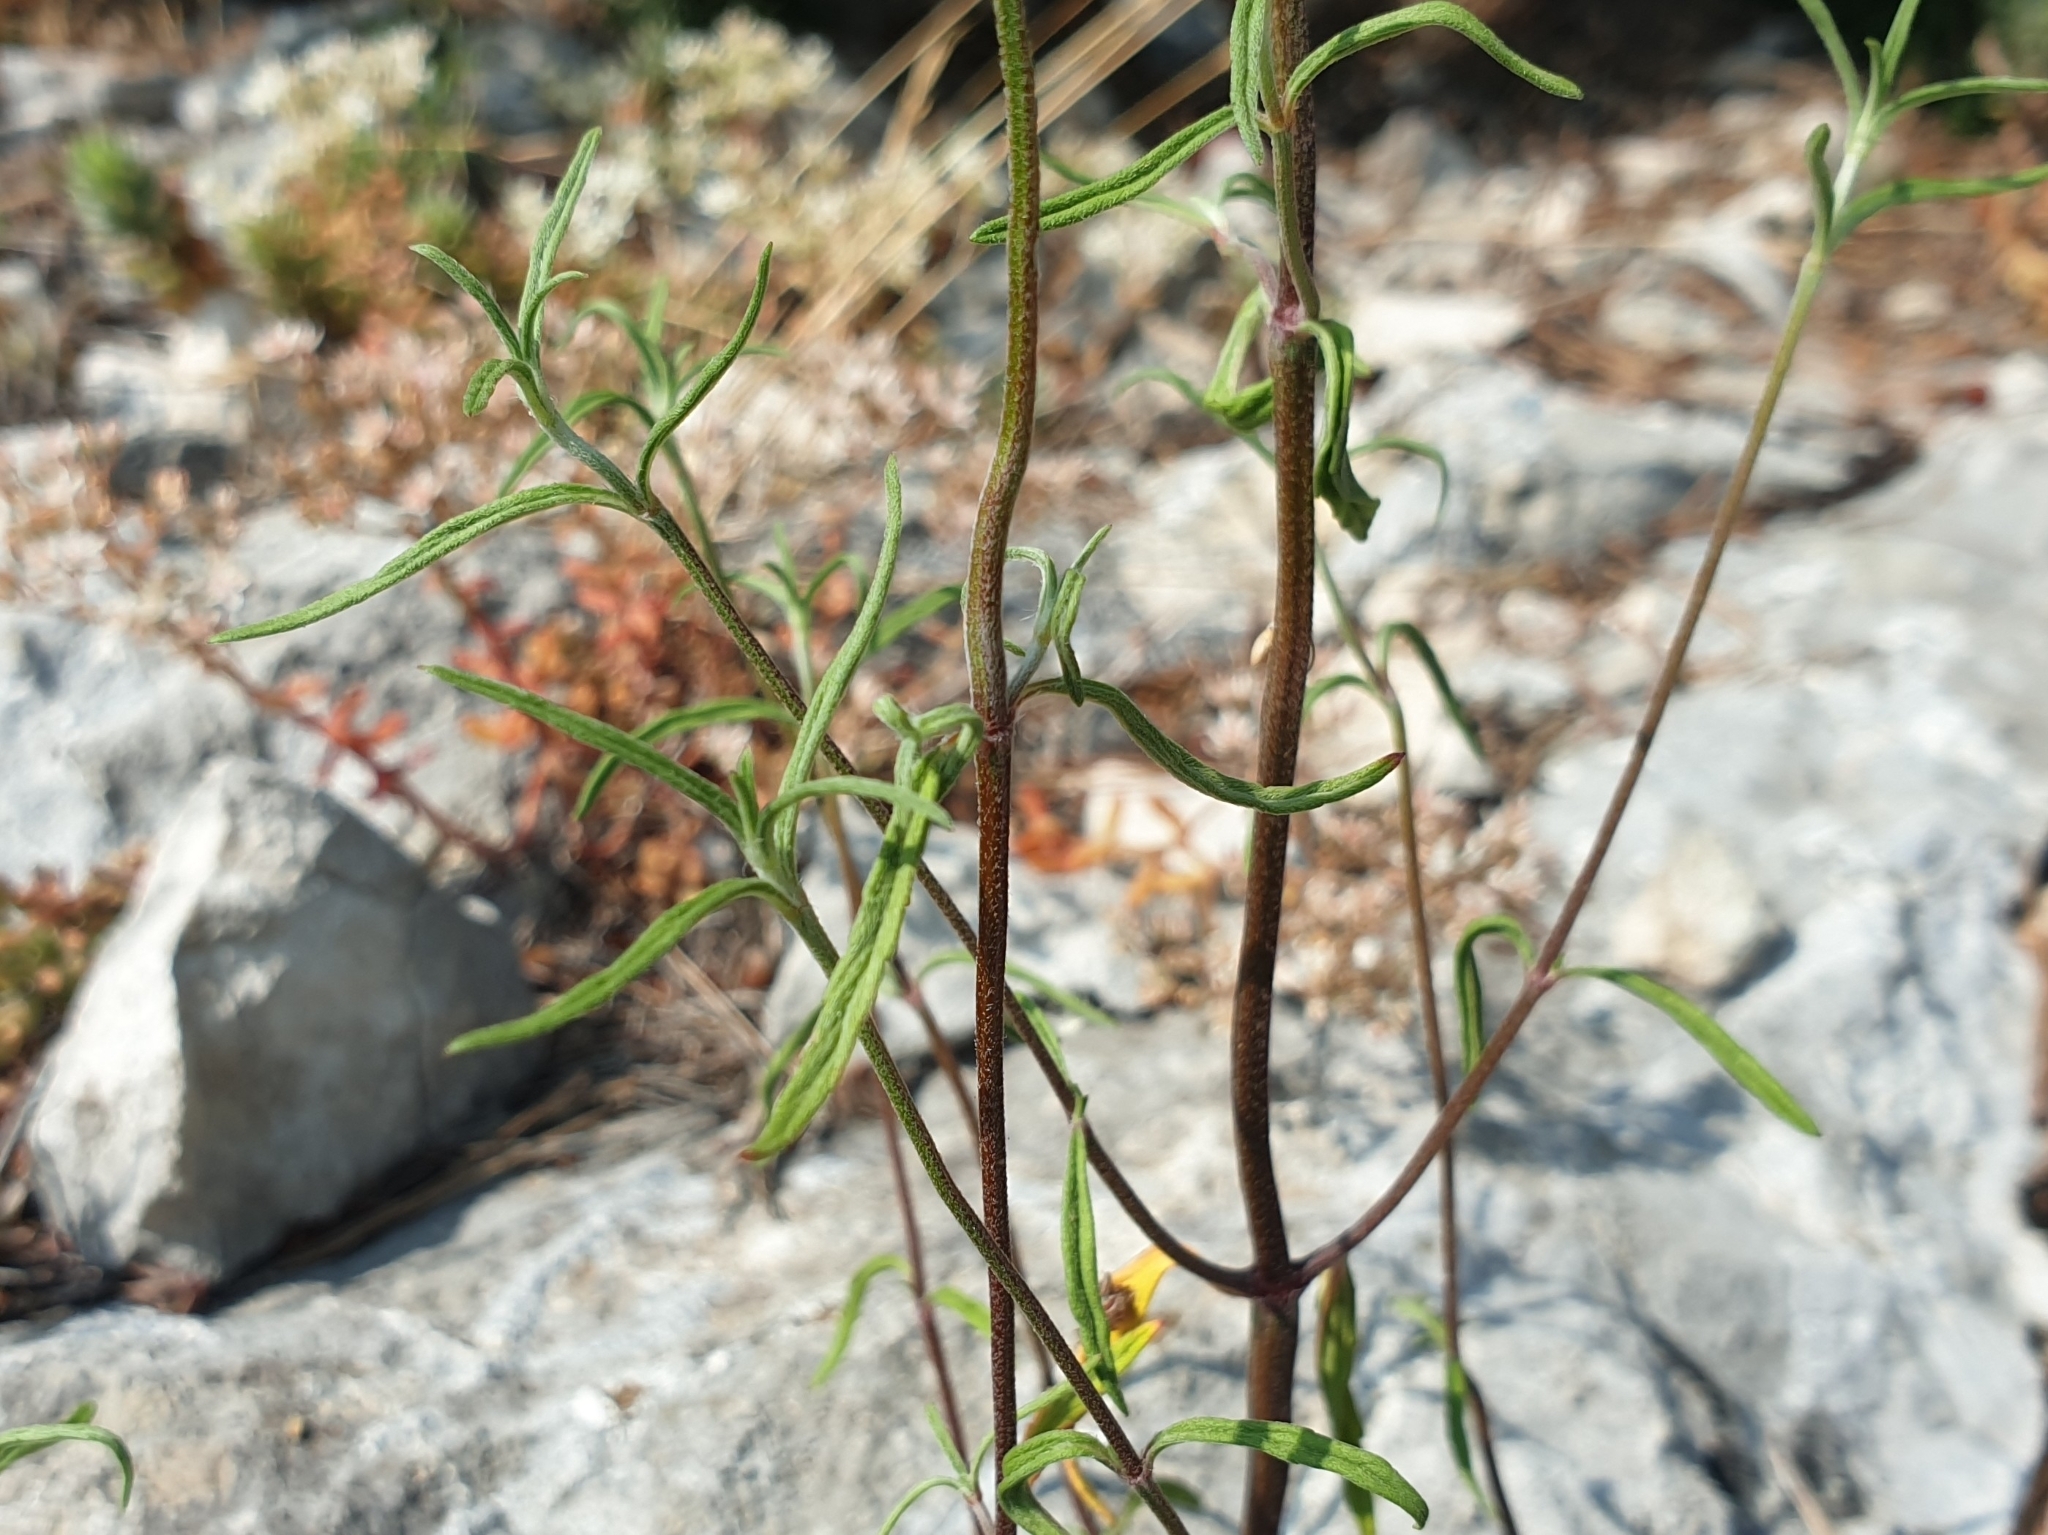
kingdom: Plantae
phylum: Tracheophyta
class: Magnoliopsida
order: Lamiales
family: Lamiaceae
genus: Galeopsis
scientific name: Galeopsis angustifolia
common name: Red hemp-nettle
